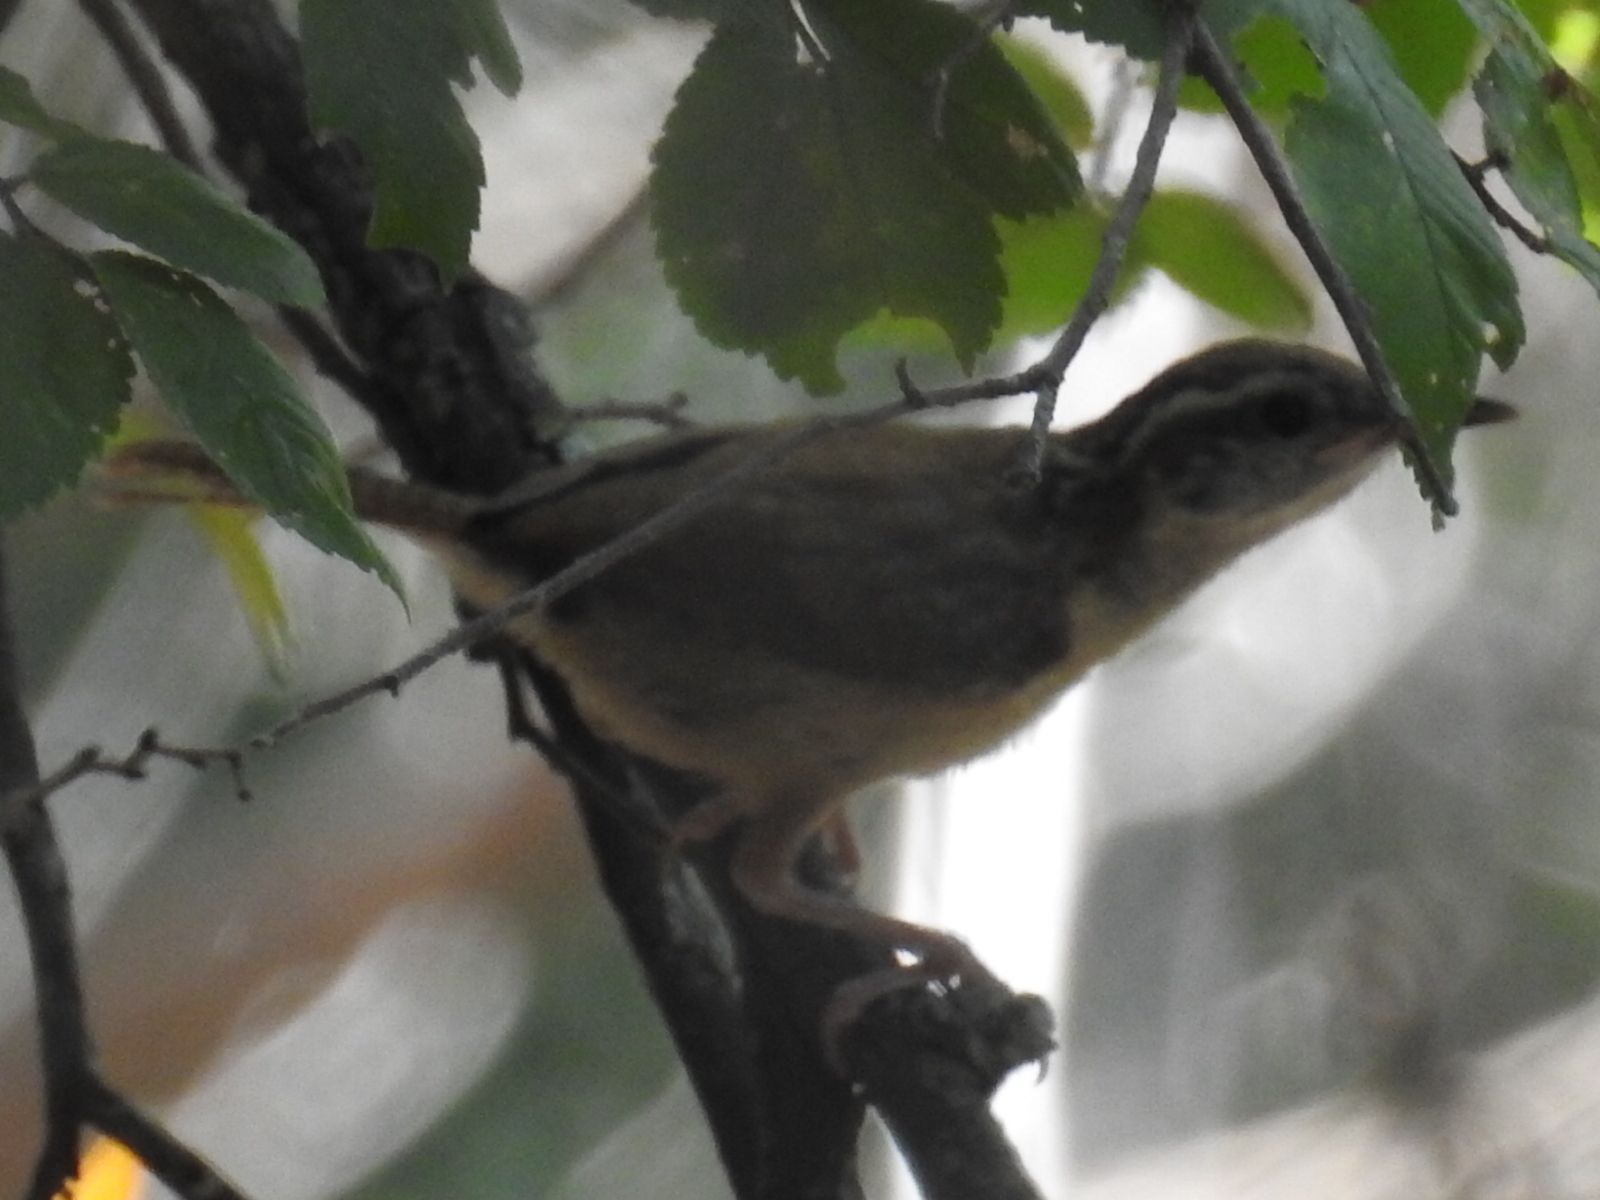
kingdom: Animalia
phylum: Chordata
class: Aves
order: Passeriformes
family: Troglodytidae
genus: Thryothorus
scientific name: Thryothorus ludovicianus
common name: Carolina wren
